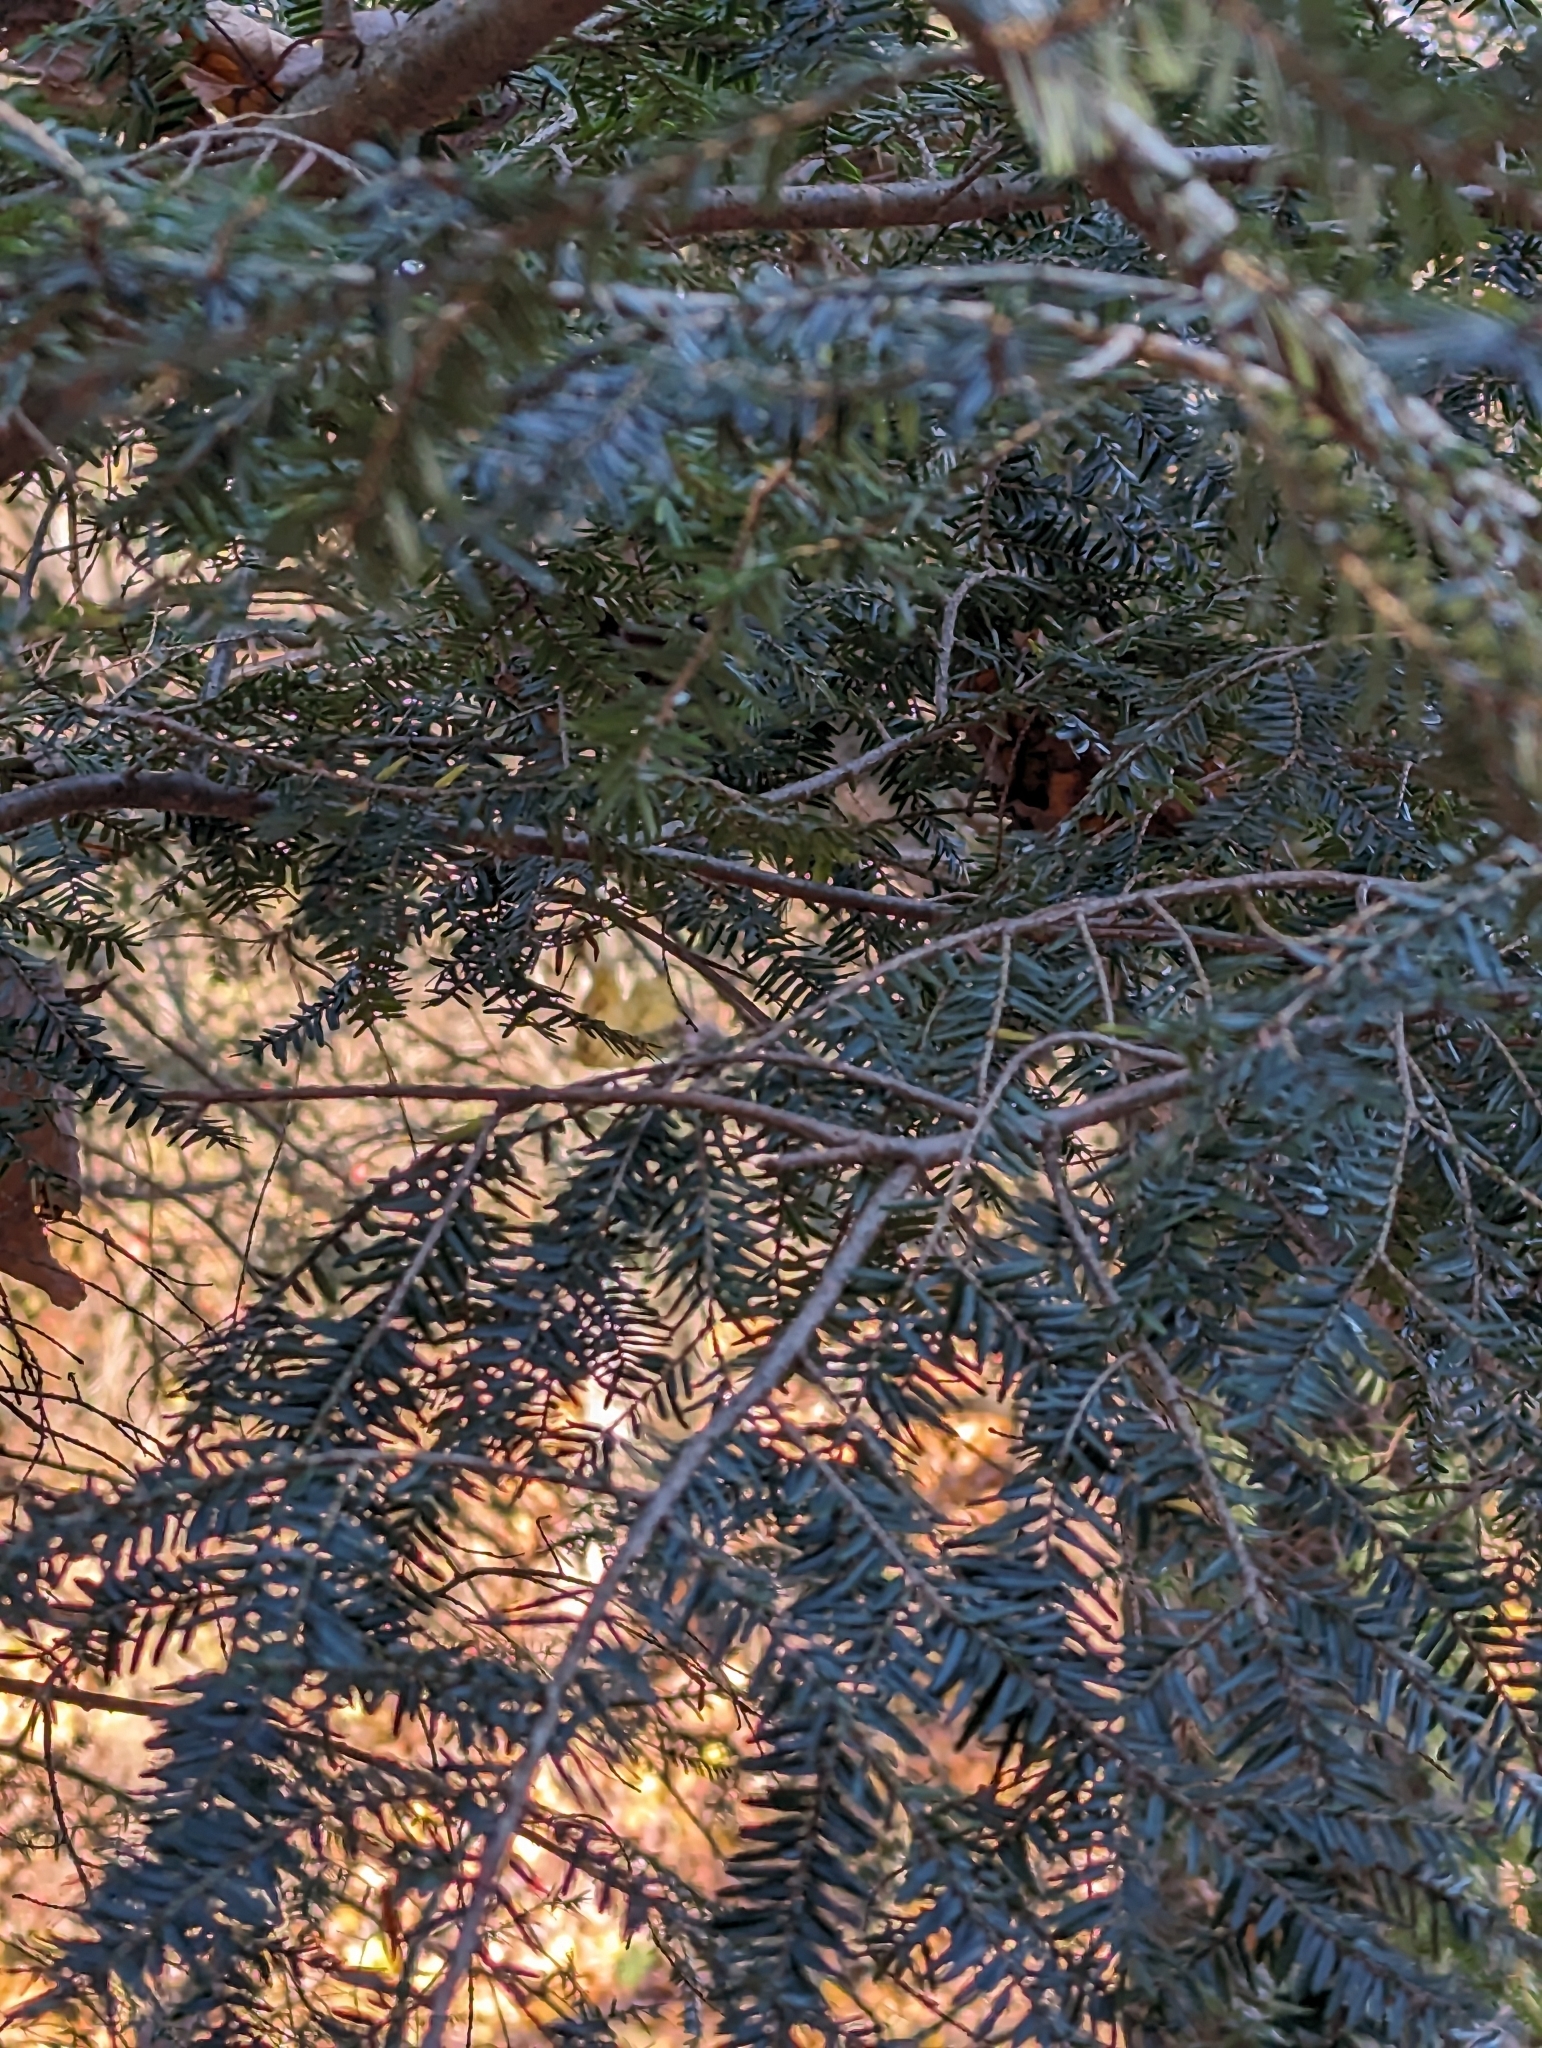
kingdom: Plantae
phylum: Tracheophyta
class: Pinopsida
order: Pinales
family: Pinaceae
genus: Tsuga
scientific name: Tsuga canadensis
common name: Eastern hemlock
